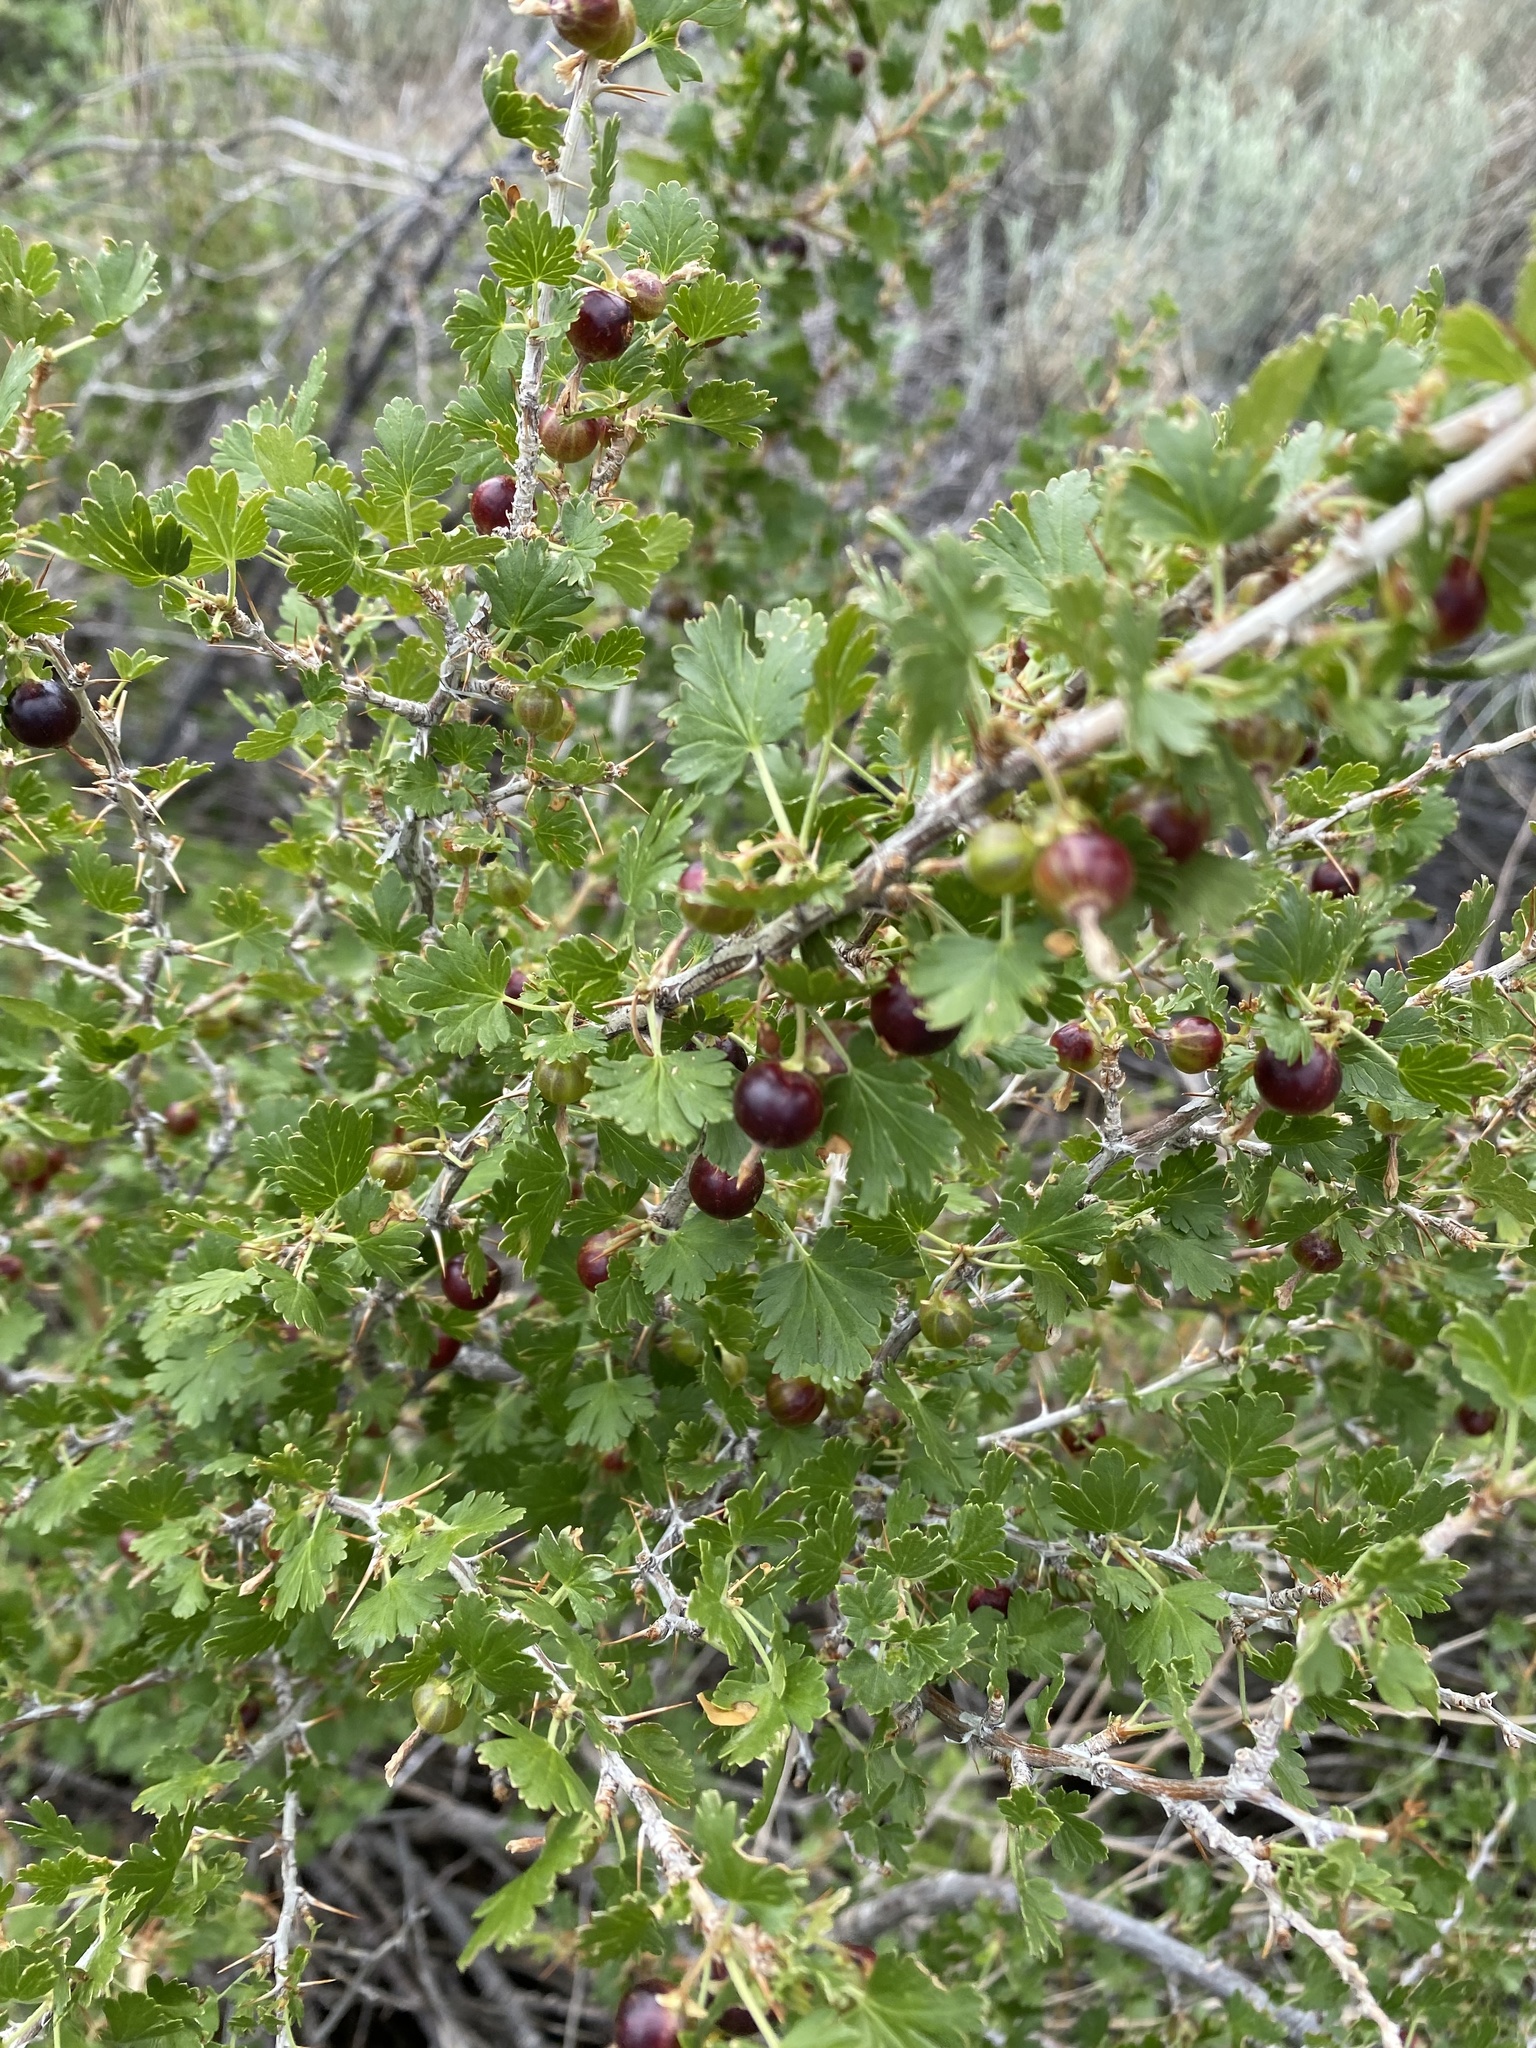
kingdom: Plantae
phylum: Tracheophyta
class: Magnoliopsida
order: Saxifragales
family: Grossulariaceae
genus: Ribes
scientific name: Ribes leptanthum
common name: Trumpet gooseberry
